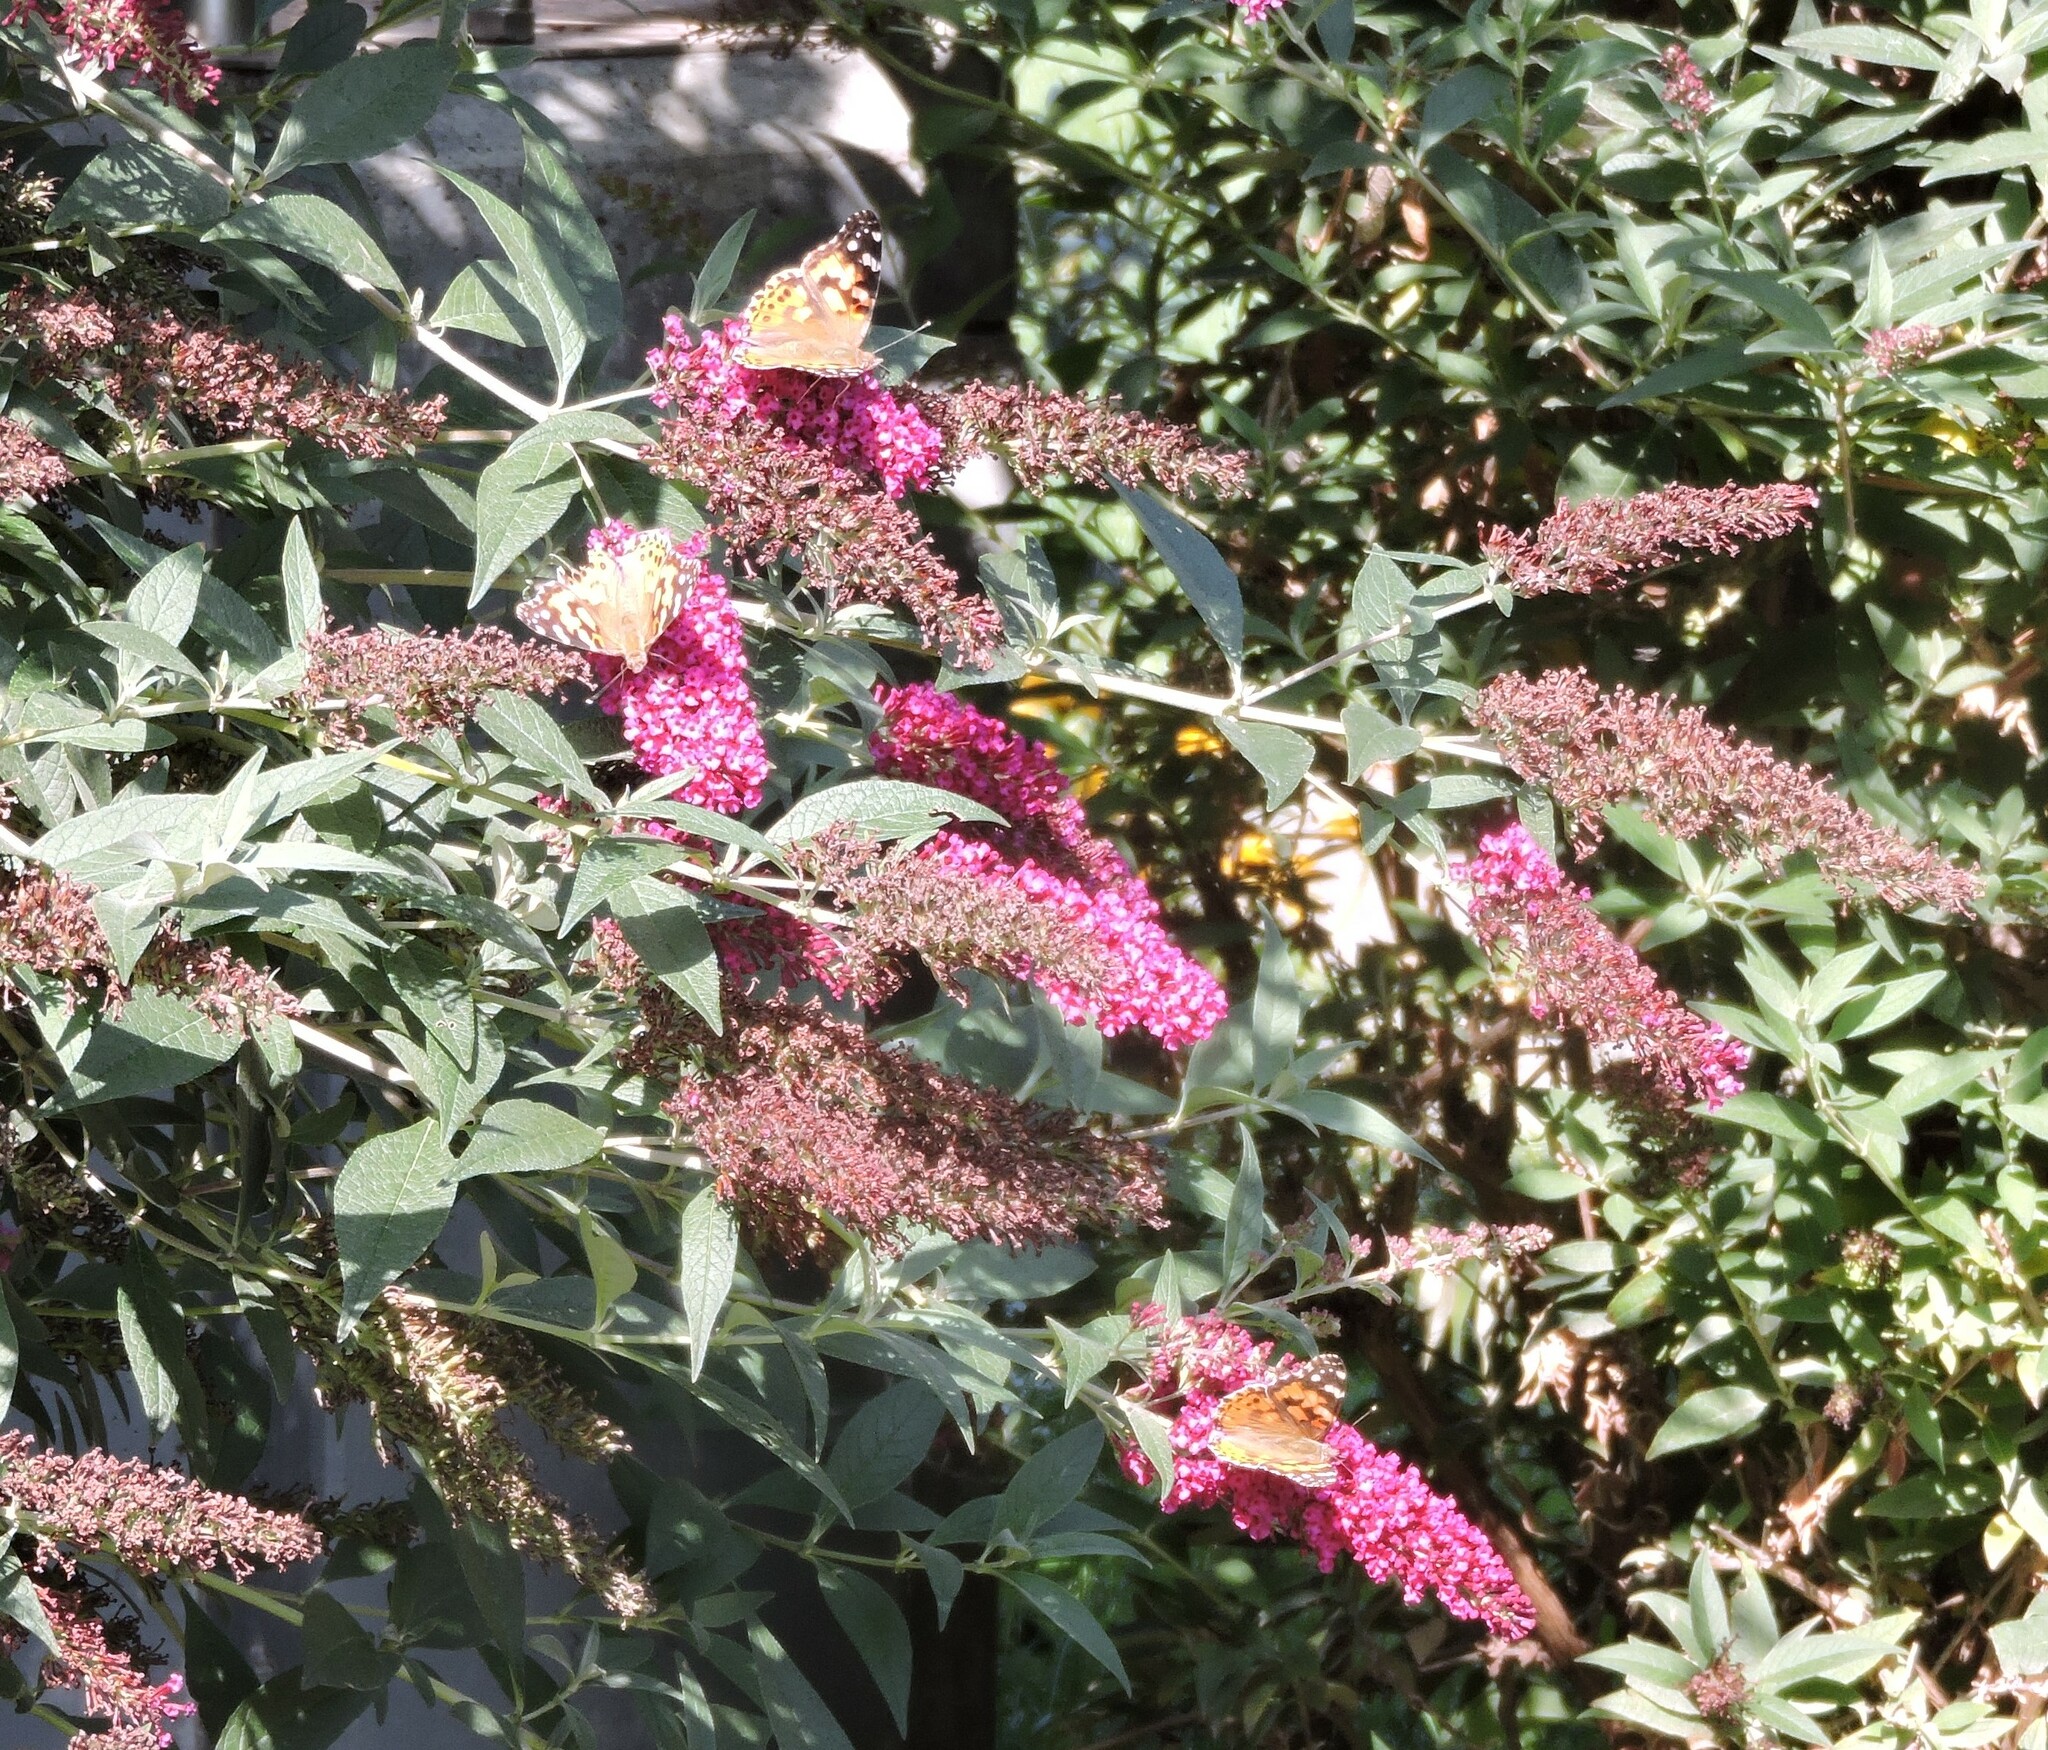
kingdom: Animalia
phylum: Arthropoda
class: Insecta
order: Lepidoptera
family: Nymphalidae
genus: Vanessa
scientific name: Vanessa cardui
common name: Painted lady
